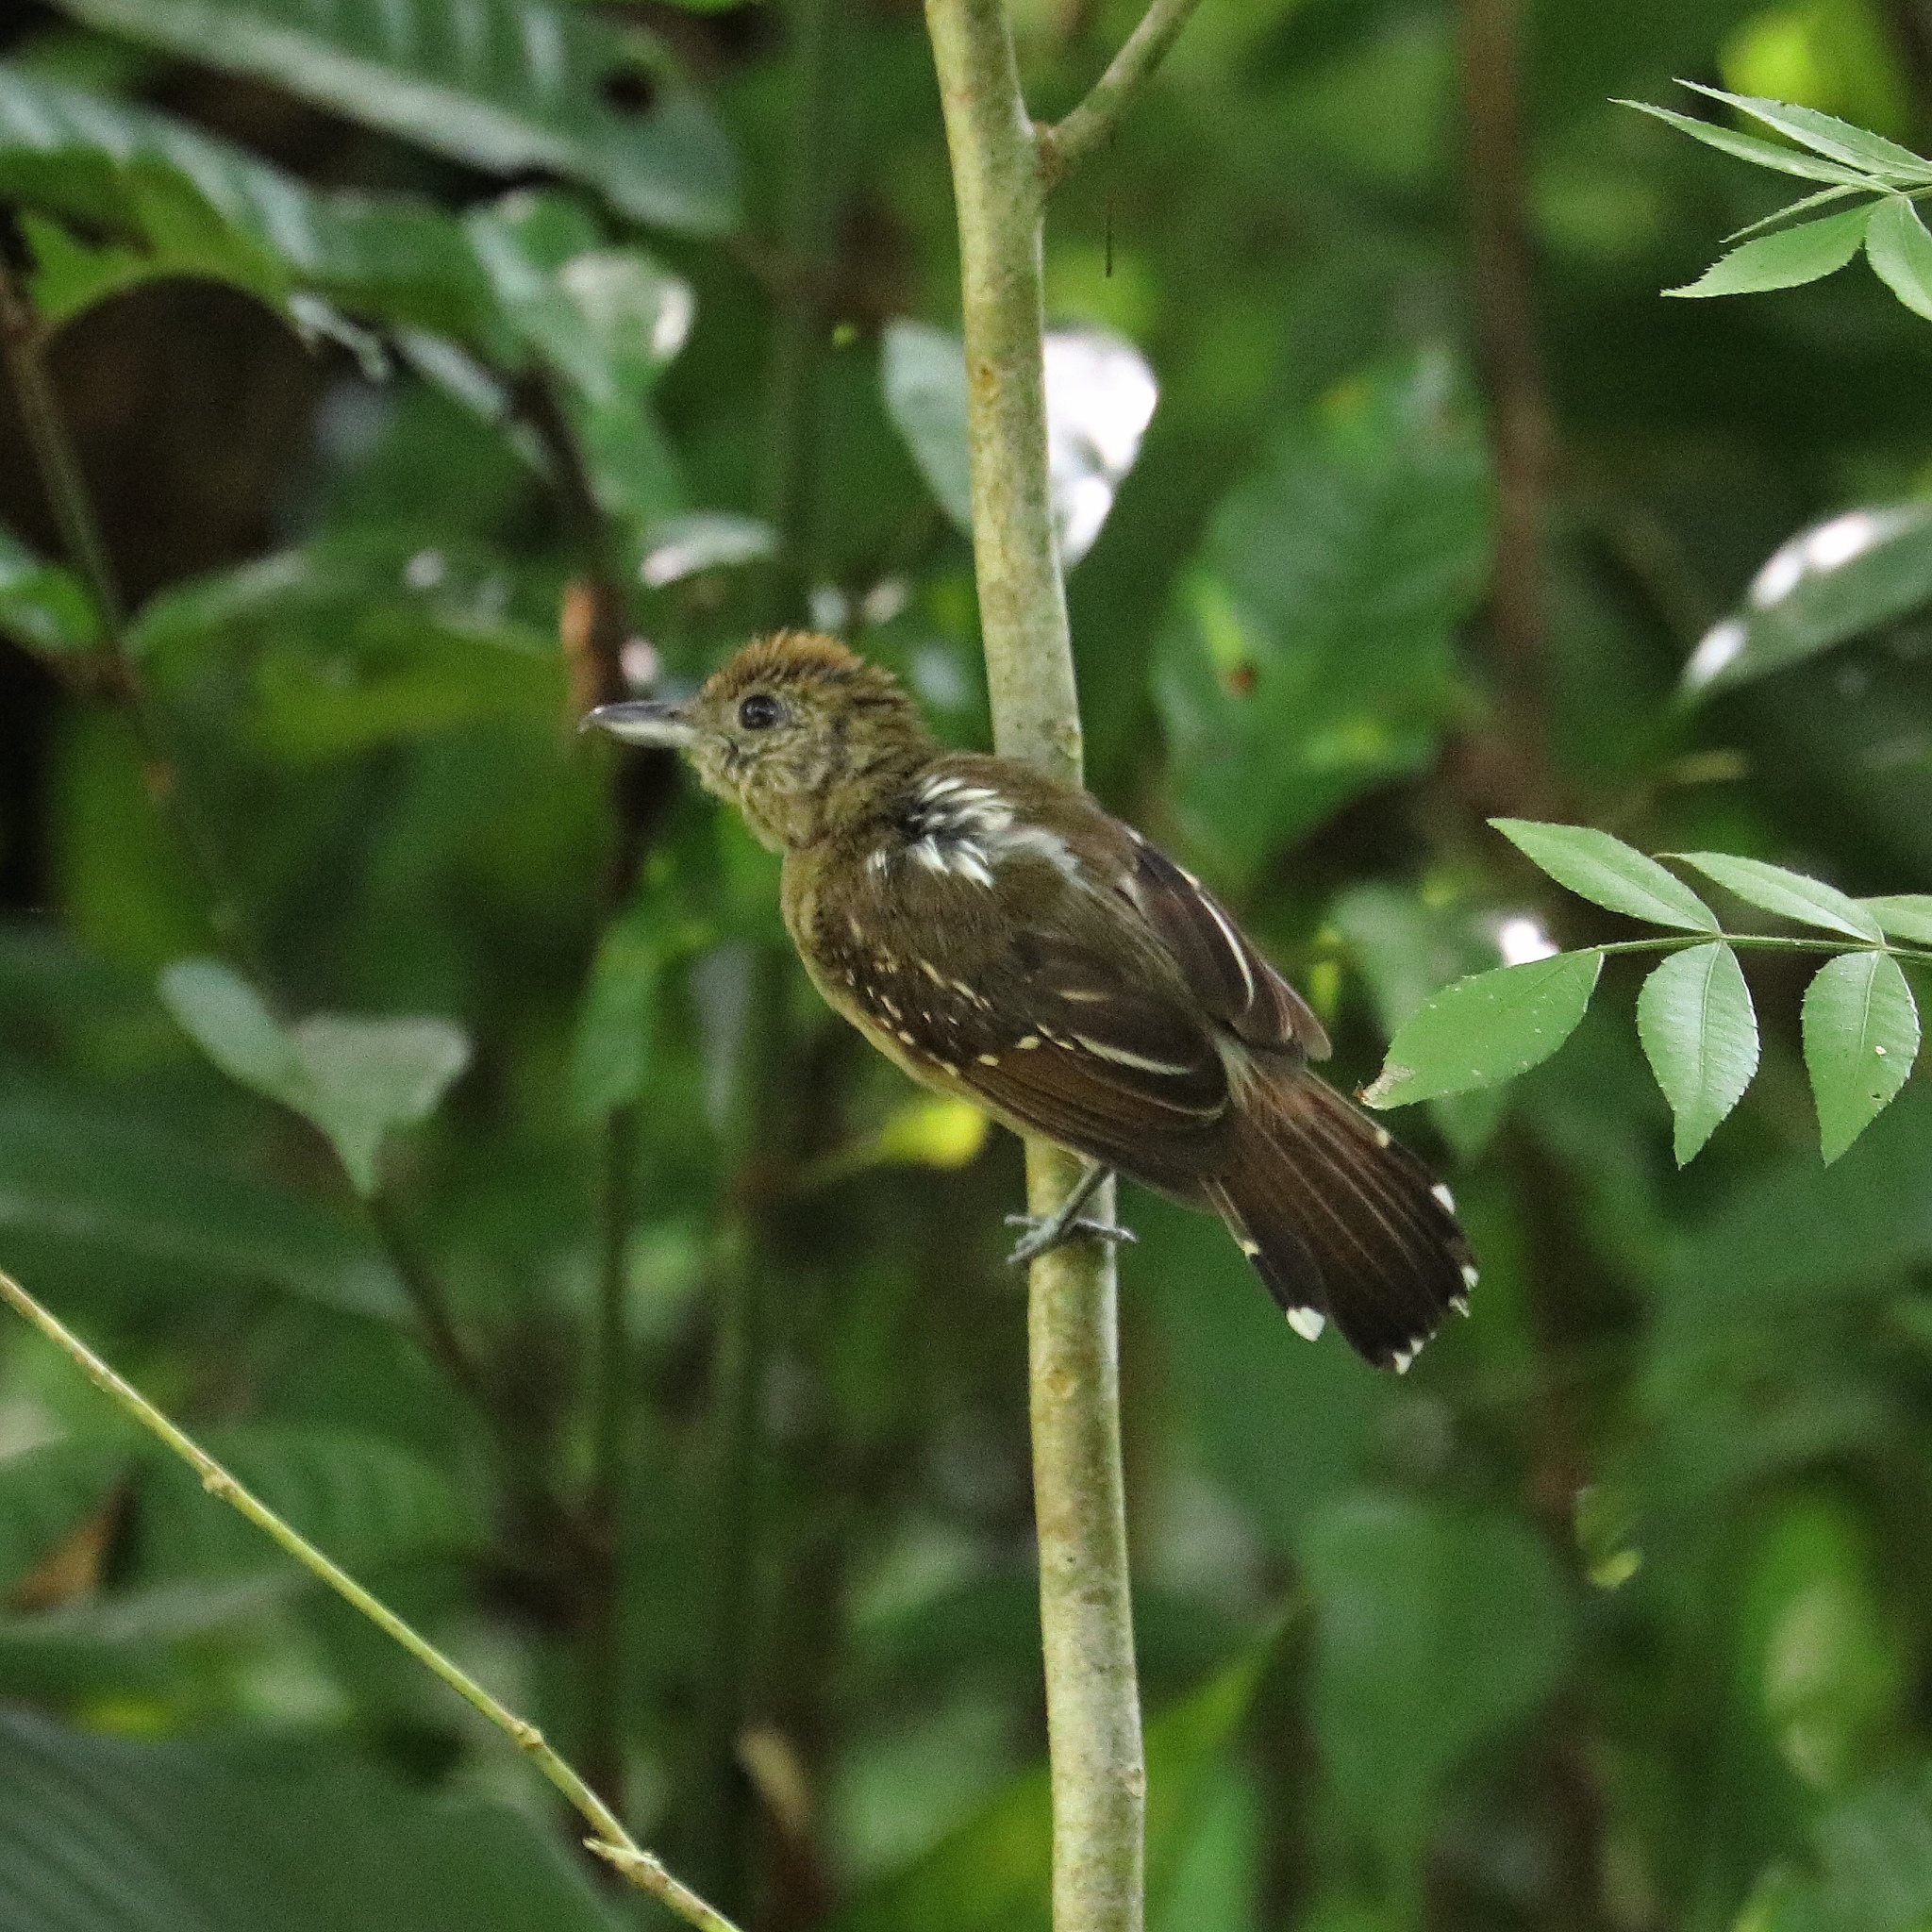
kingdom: Animalia
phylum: Chordata
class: Aves
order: Passeriformes
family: Thamnophilidae
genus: Thamnophilus
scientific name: Thamnophilus atrinucha
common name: Black-crowned antshrike
